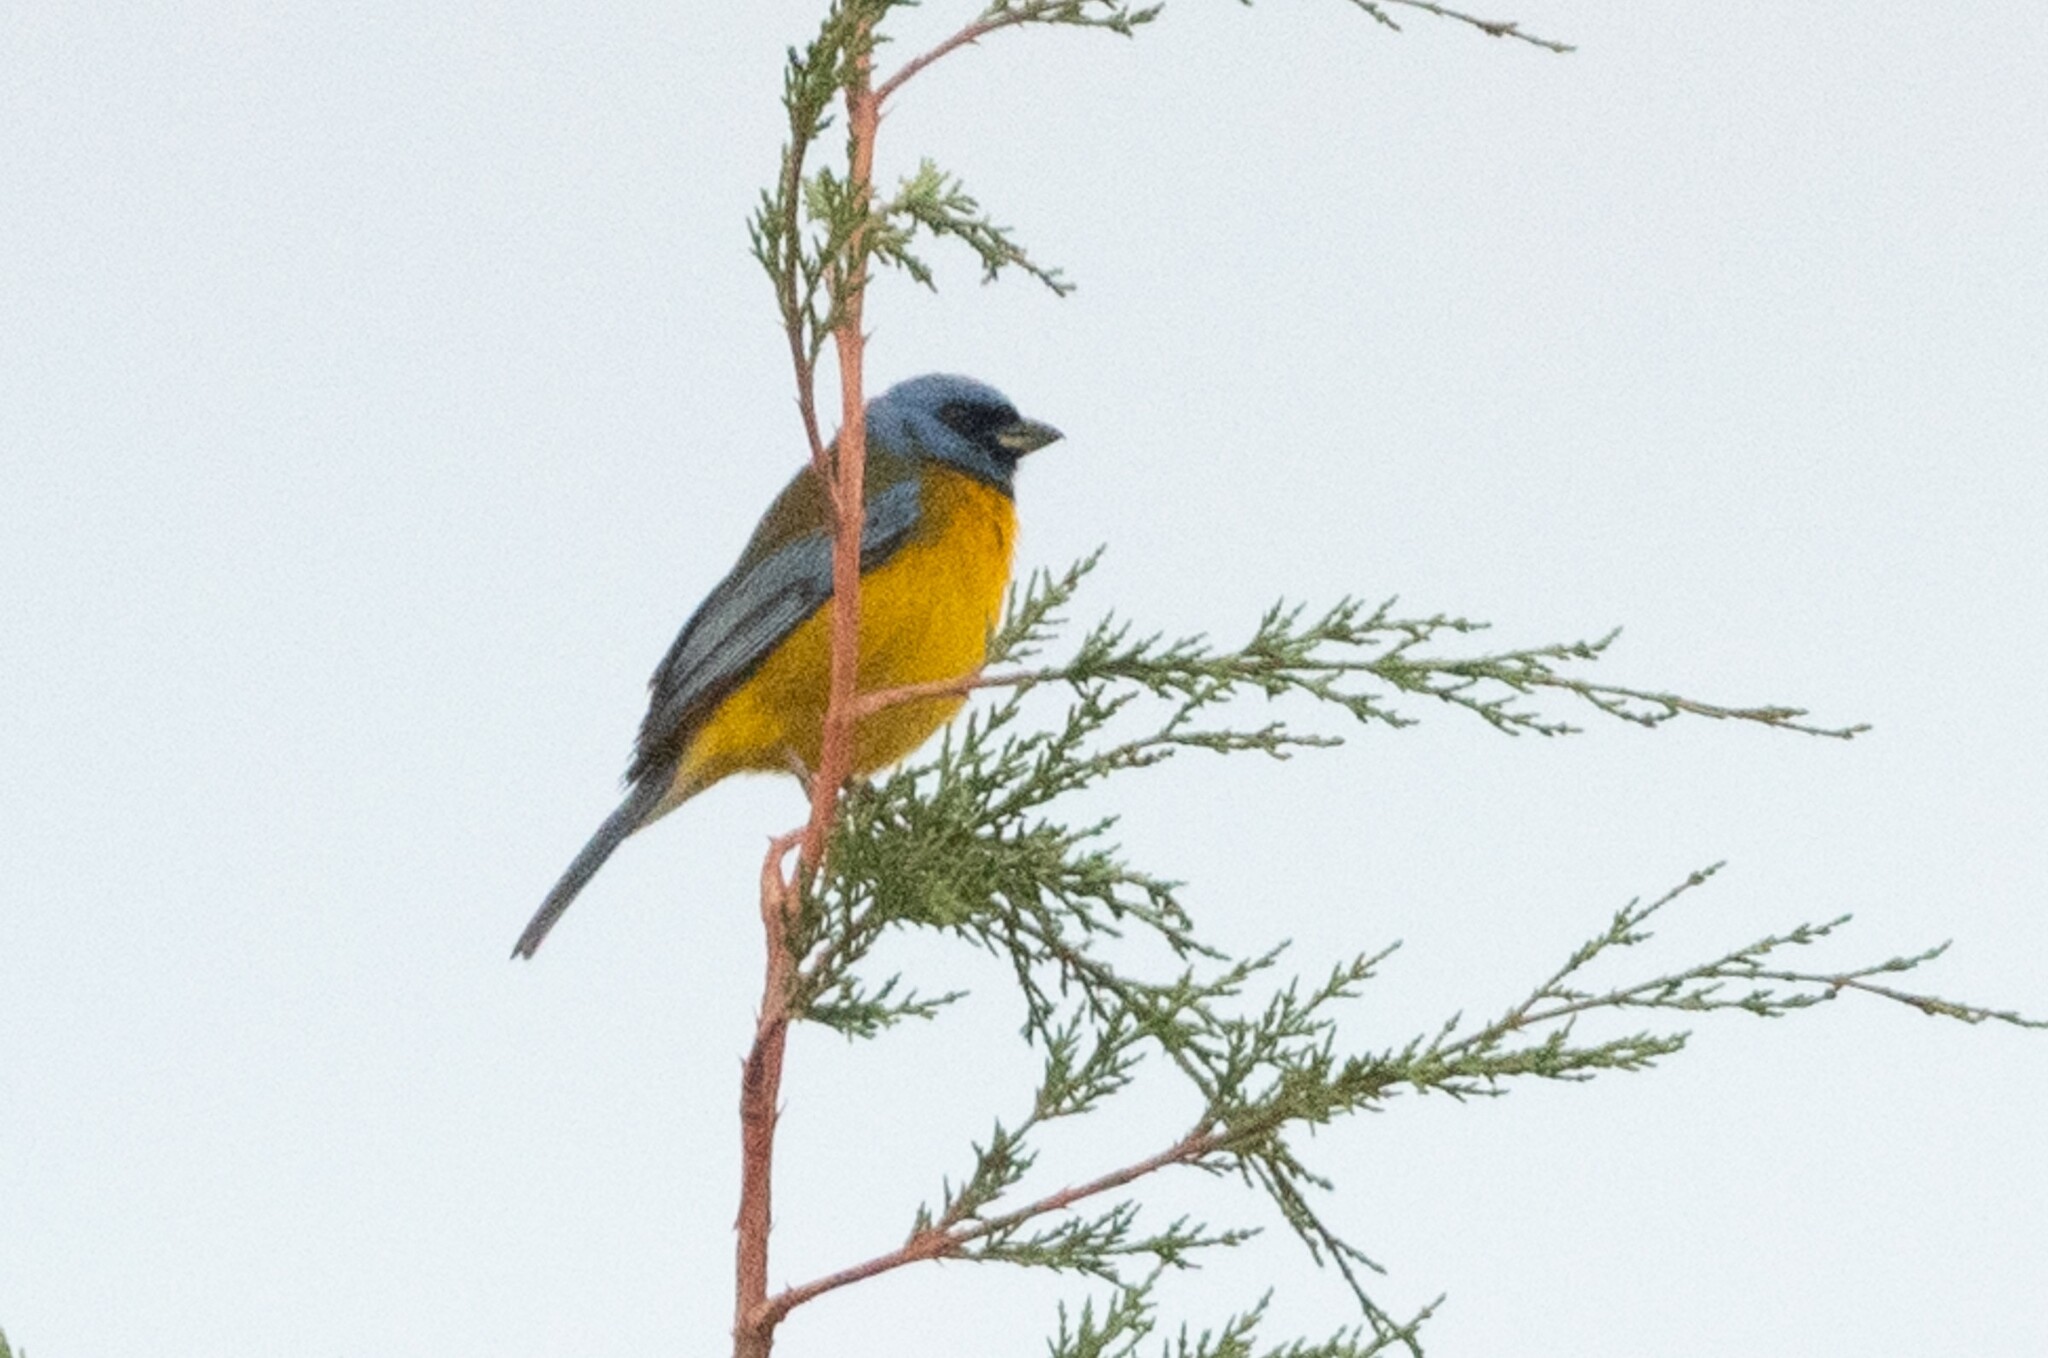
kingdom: Animalia
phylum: Chordata
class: Aves
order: Passeriformes
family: Thraupidae
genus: Rauenia
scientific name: Rauenia bonariensis
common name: Blue-and-yellow tanager
